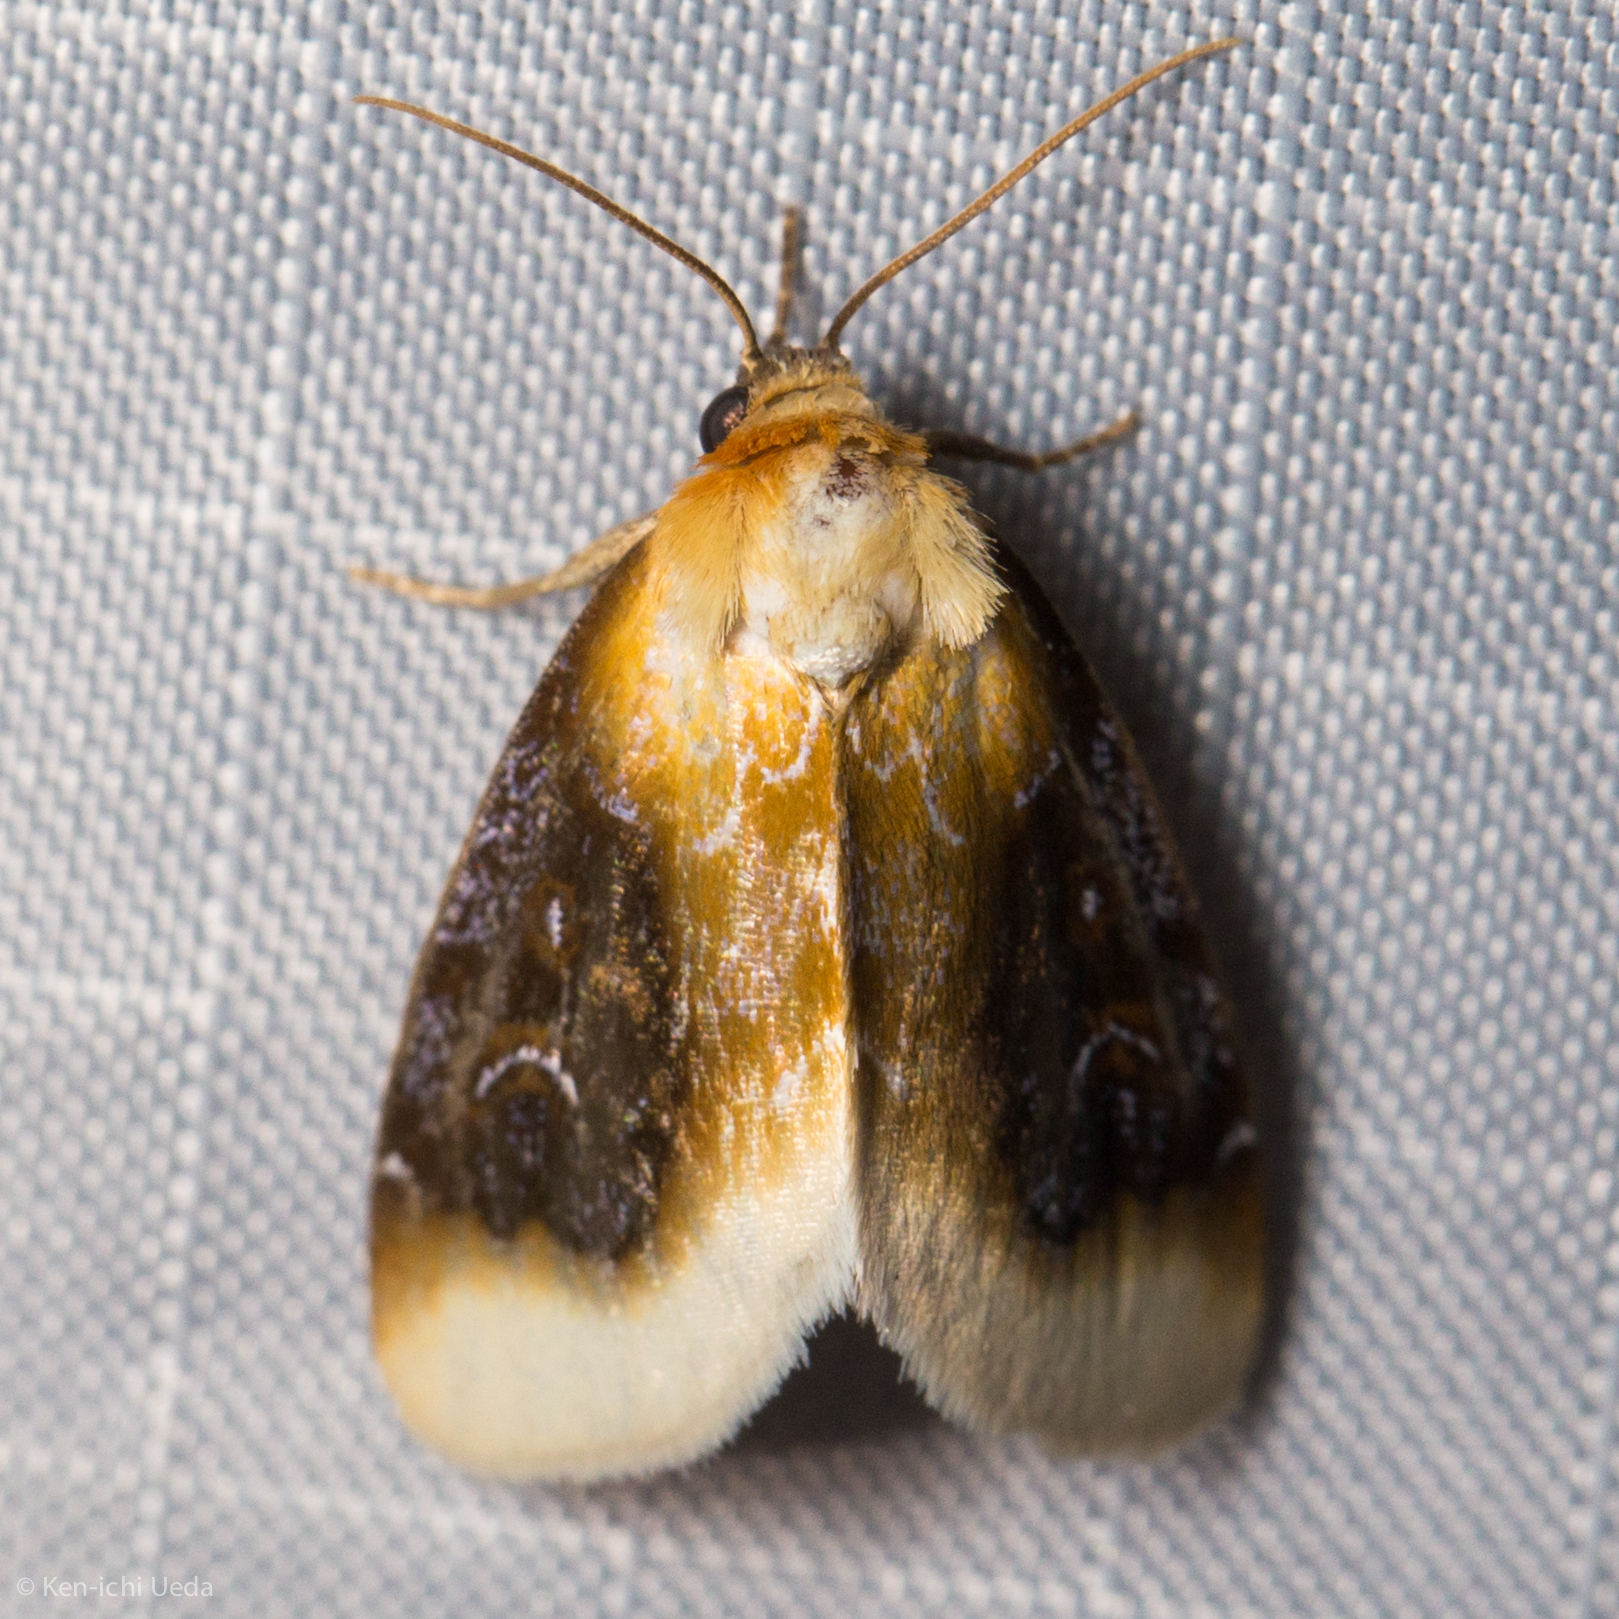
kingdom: Animalia
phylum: Arthropoda
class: Insecta
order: Lepidoptera
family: Noctuidae
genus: Chrysoecia
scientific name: Chrysoecia scira
